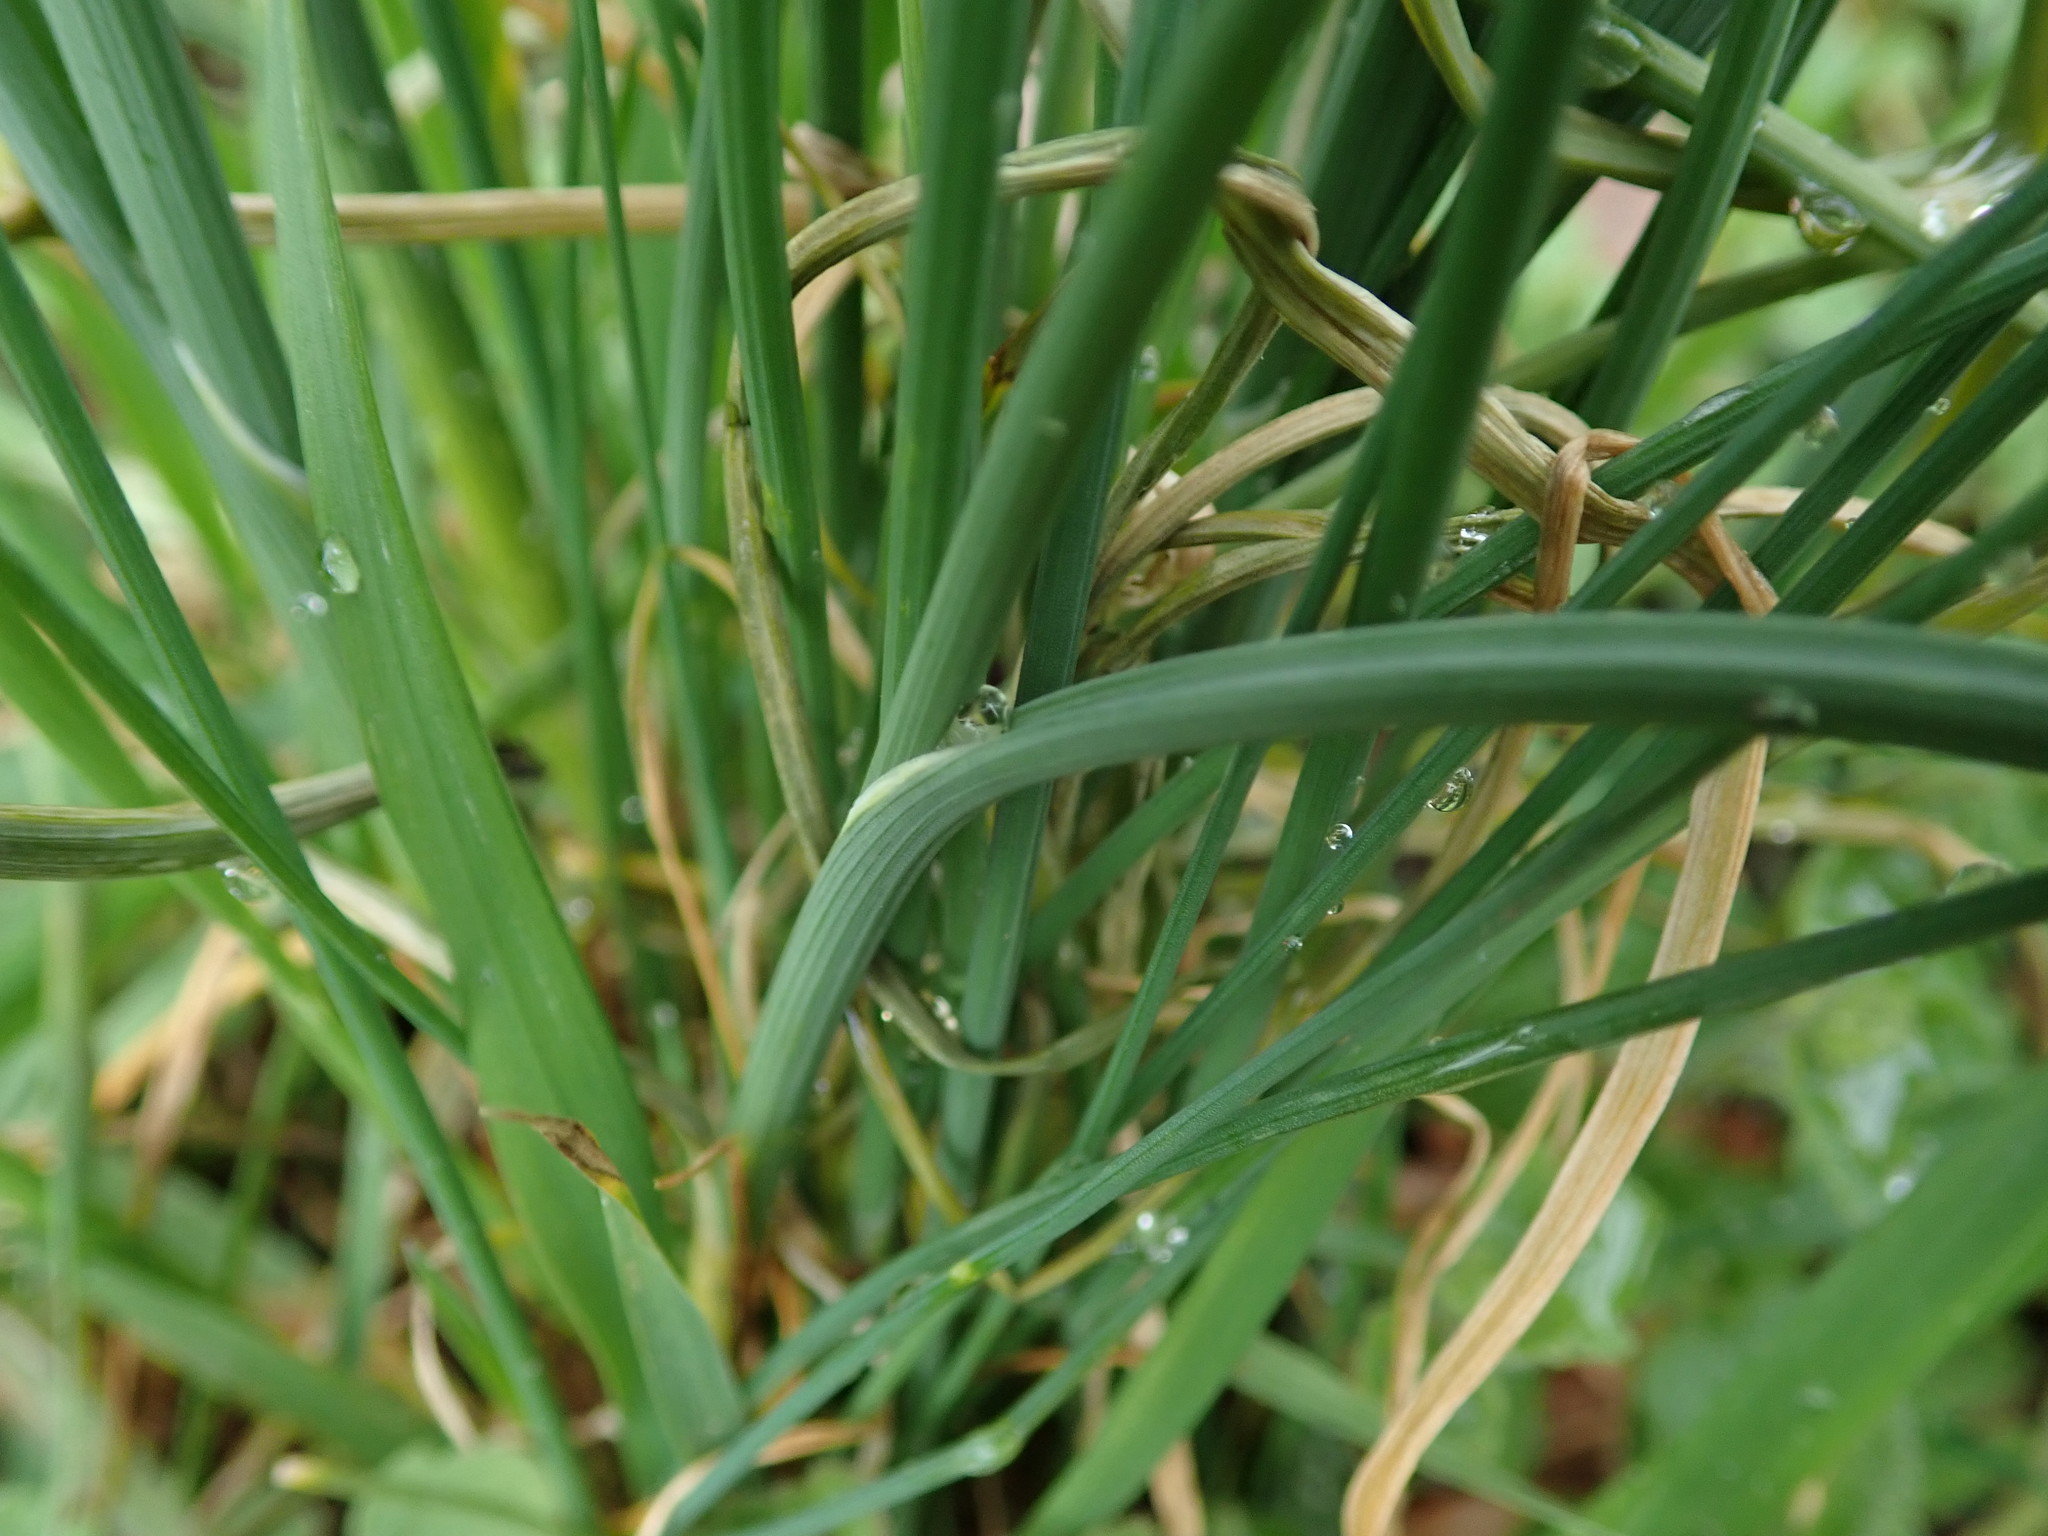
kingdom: Plantae
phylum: Tracheophyta
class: Liliopsida
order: Asparagales
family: Amaryllidaceae
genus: Allium
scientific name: Allium vineale
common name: Crow garlic
